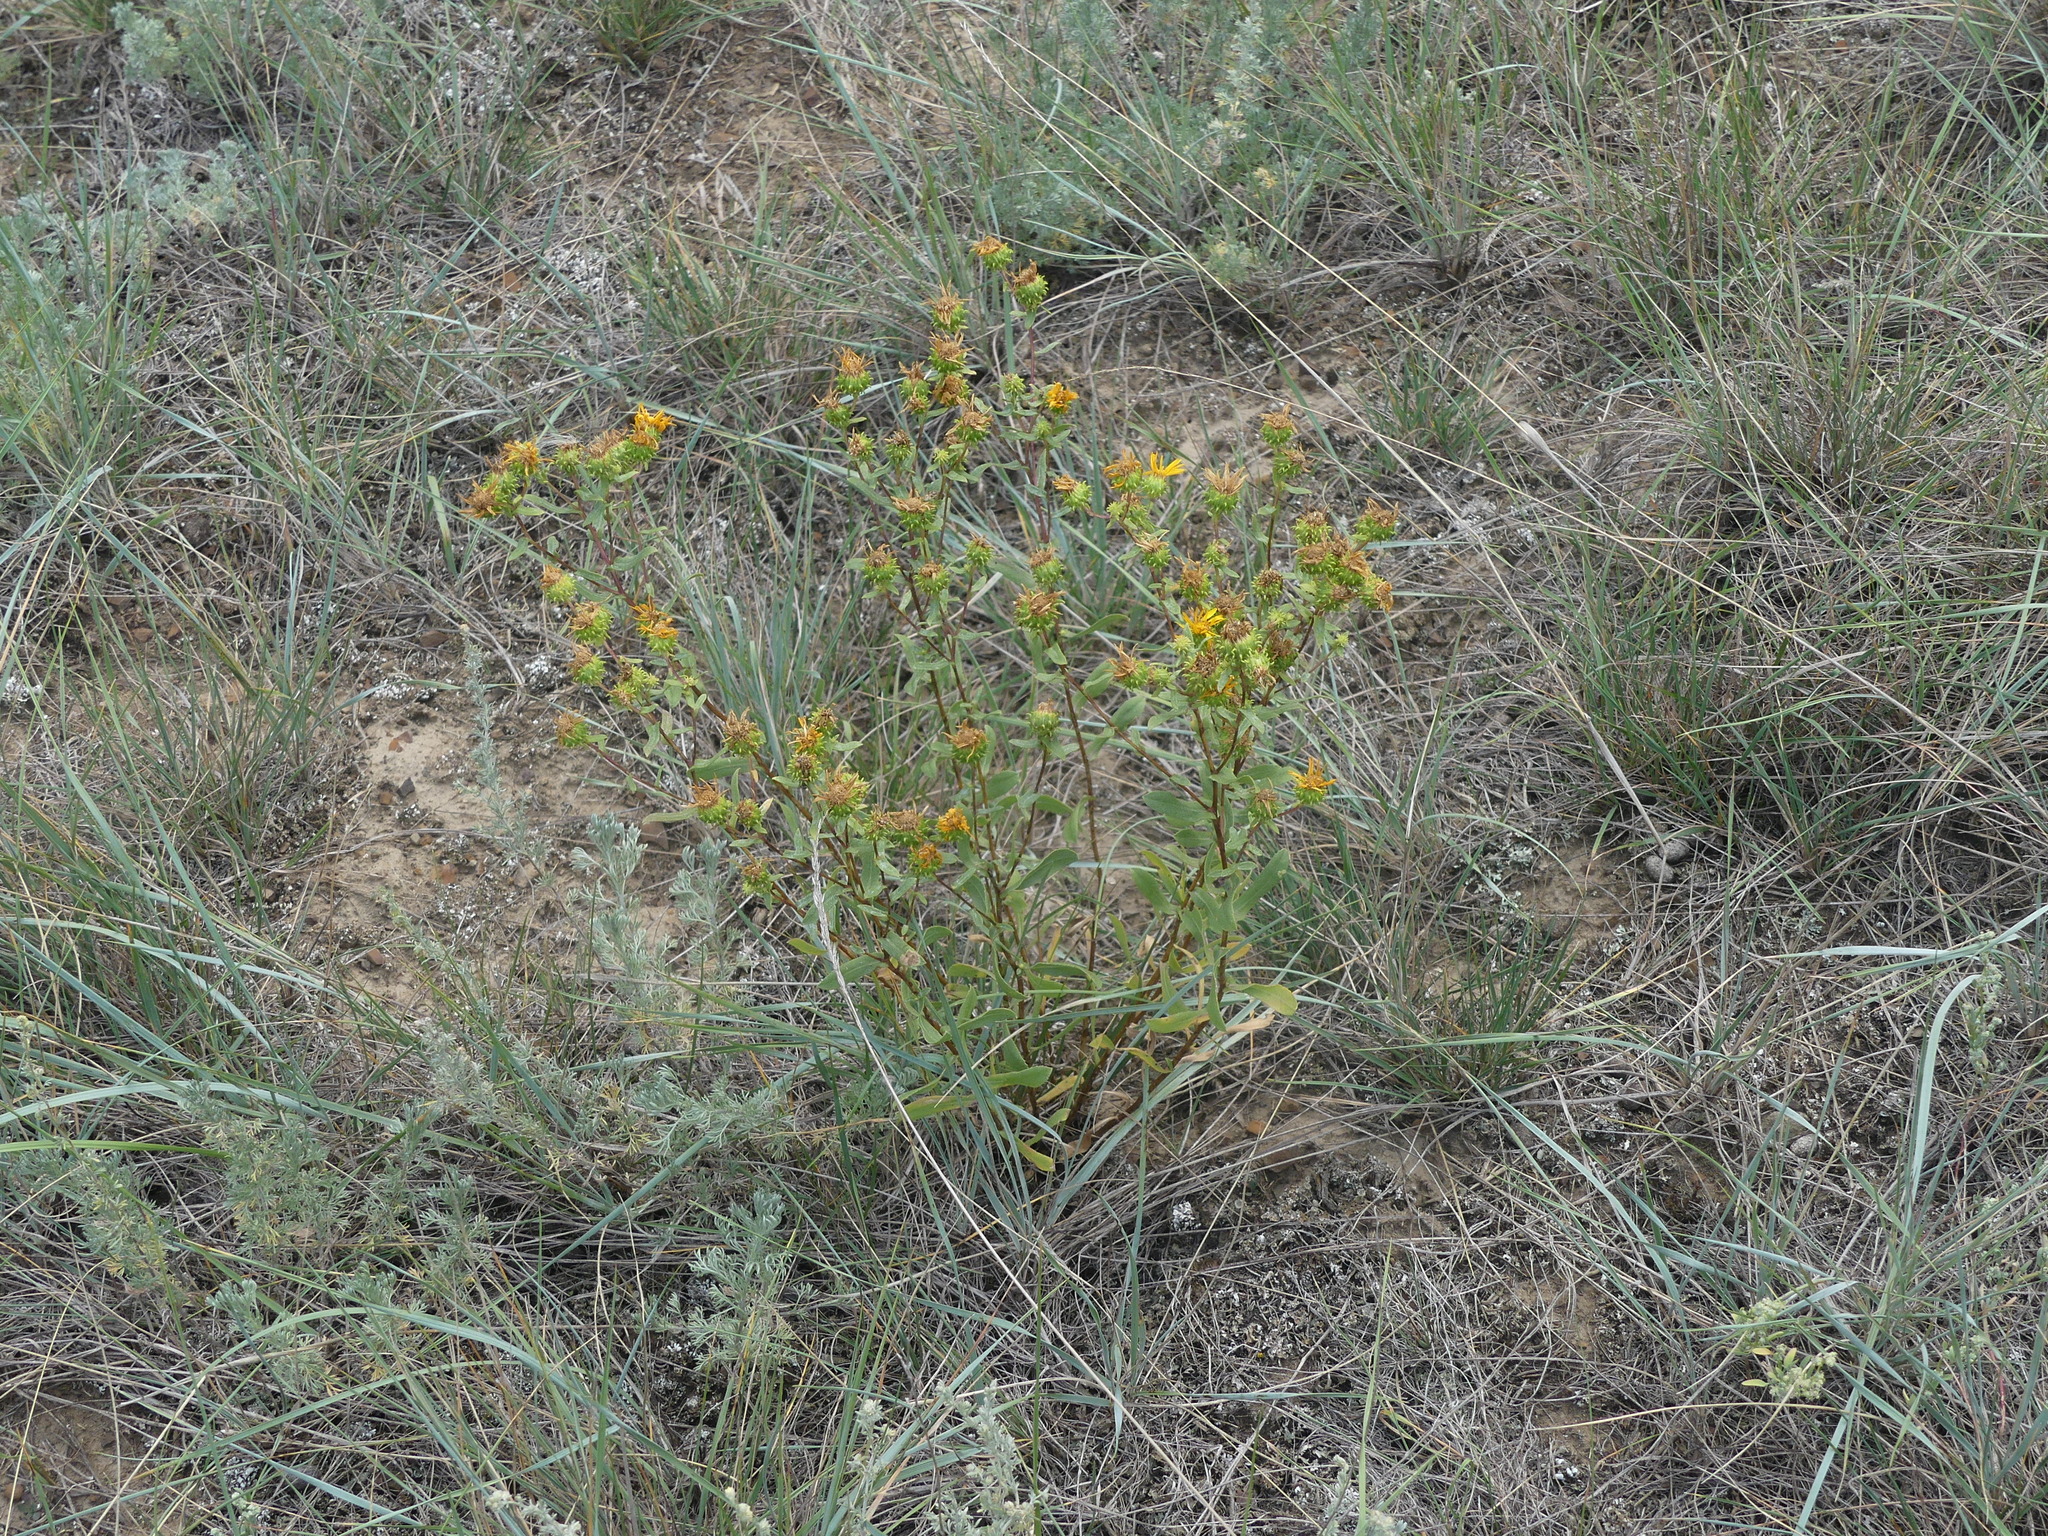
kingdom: Plantae
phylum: Tracheophyta
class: Magnoliopsida
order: Asterales
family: Asteraceae
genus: Grindelia
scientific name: Grindelia squarrosa
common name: Curly-cup gumweed
